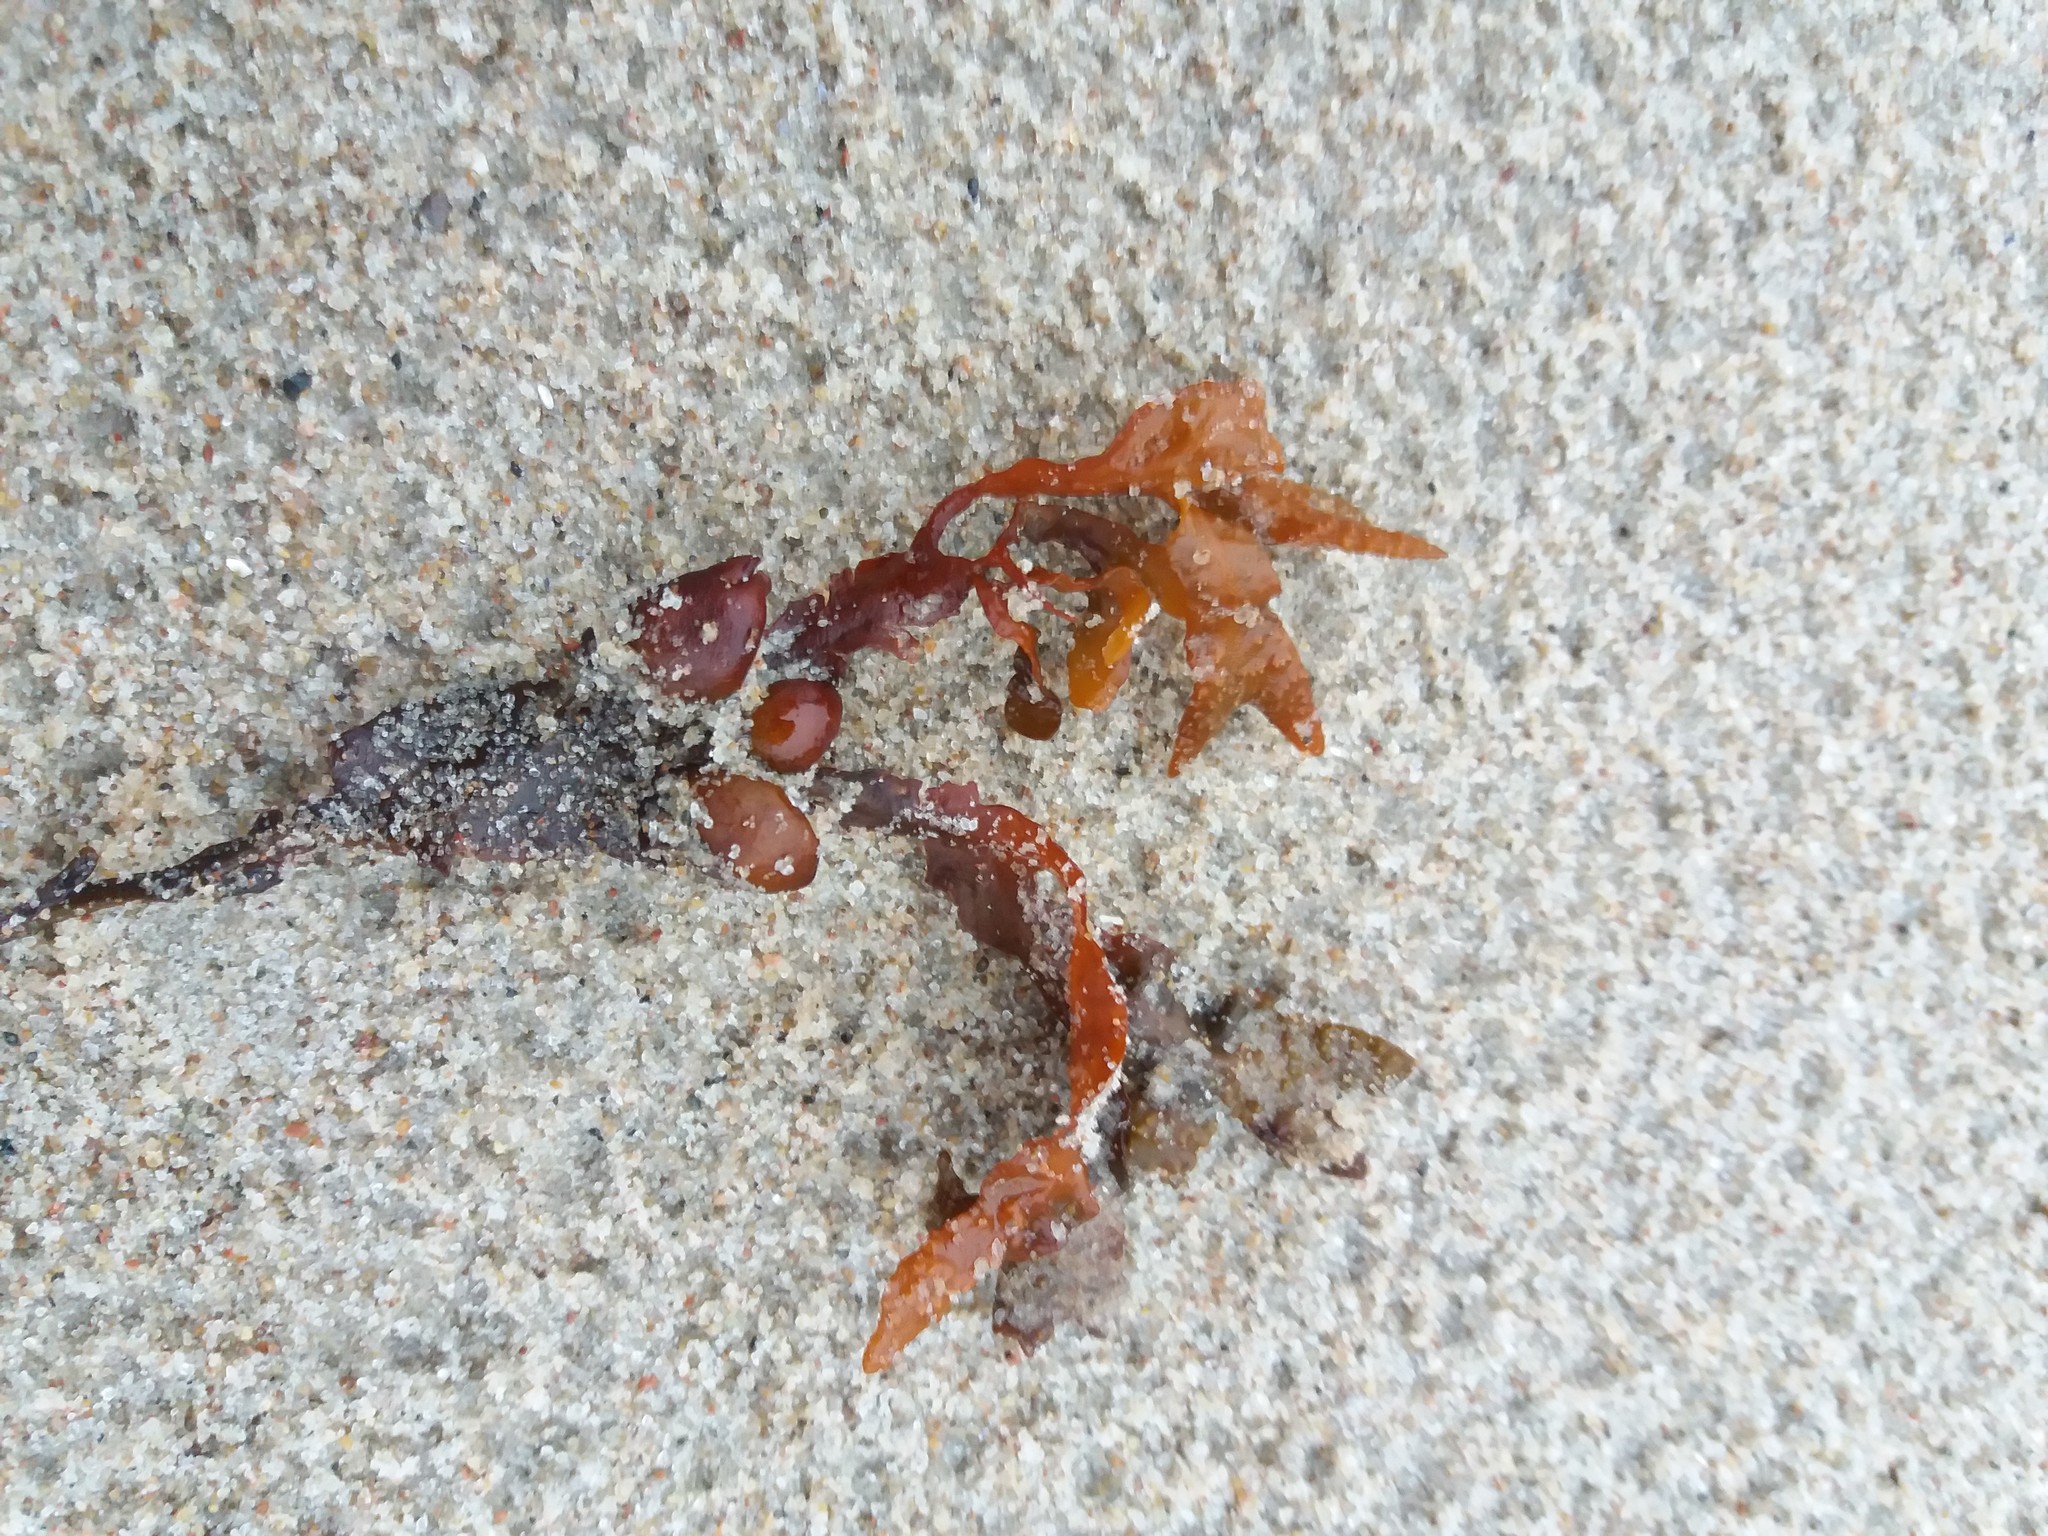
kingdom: Chromista
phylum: Ochrophyta
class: Phaeophyceae
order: Fucales
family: Fucaceae
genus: Fucus
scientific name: Fucus vesiculosus
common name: Bladder wrack
